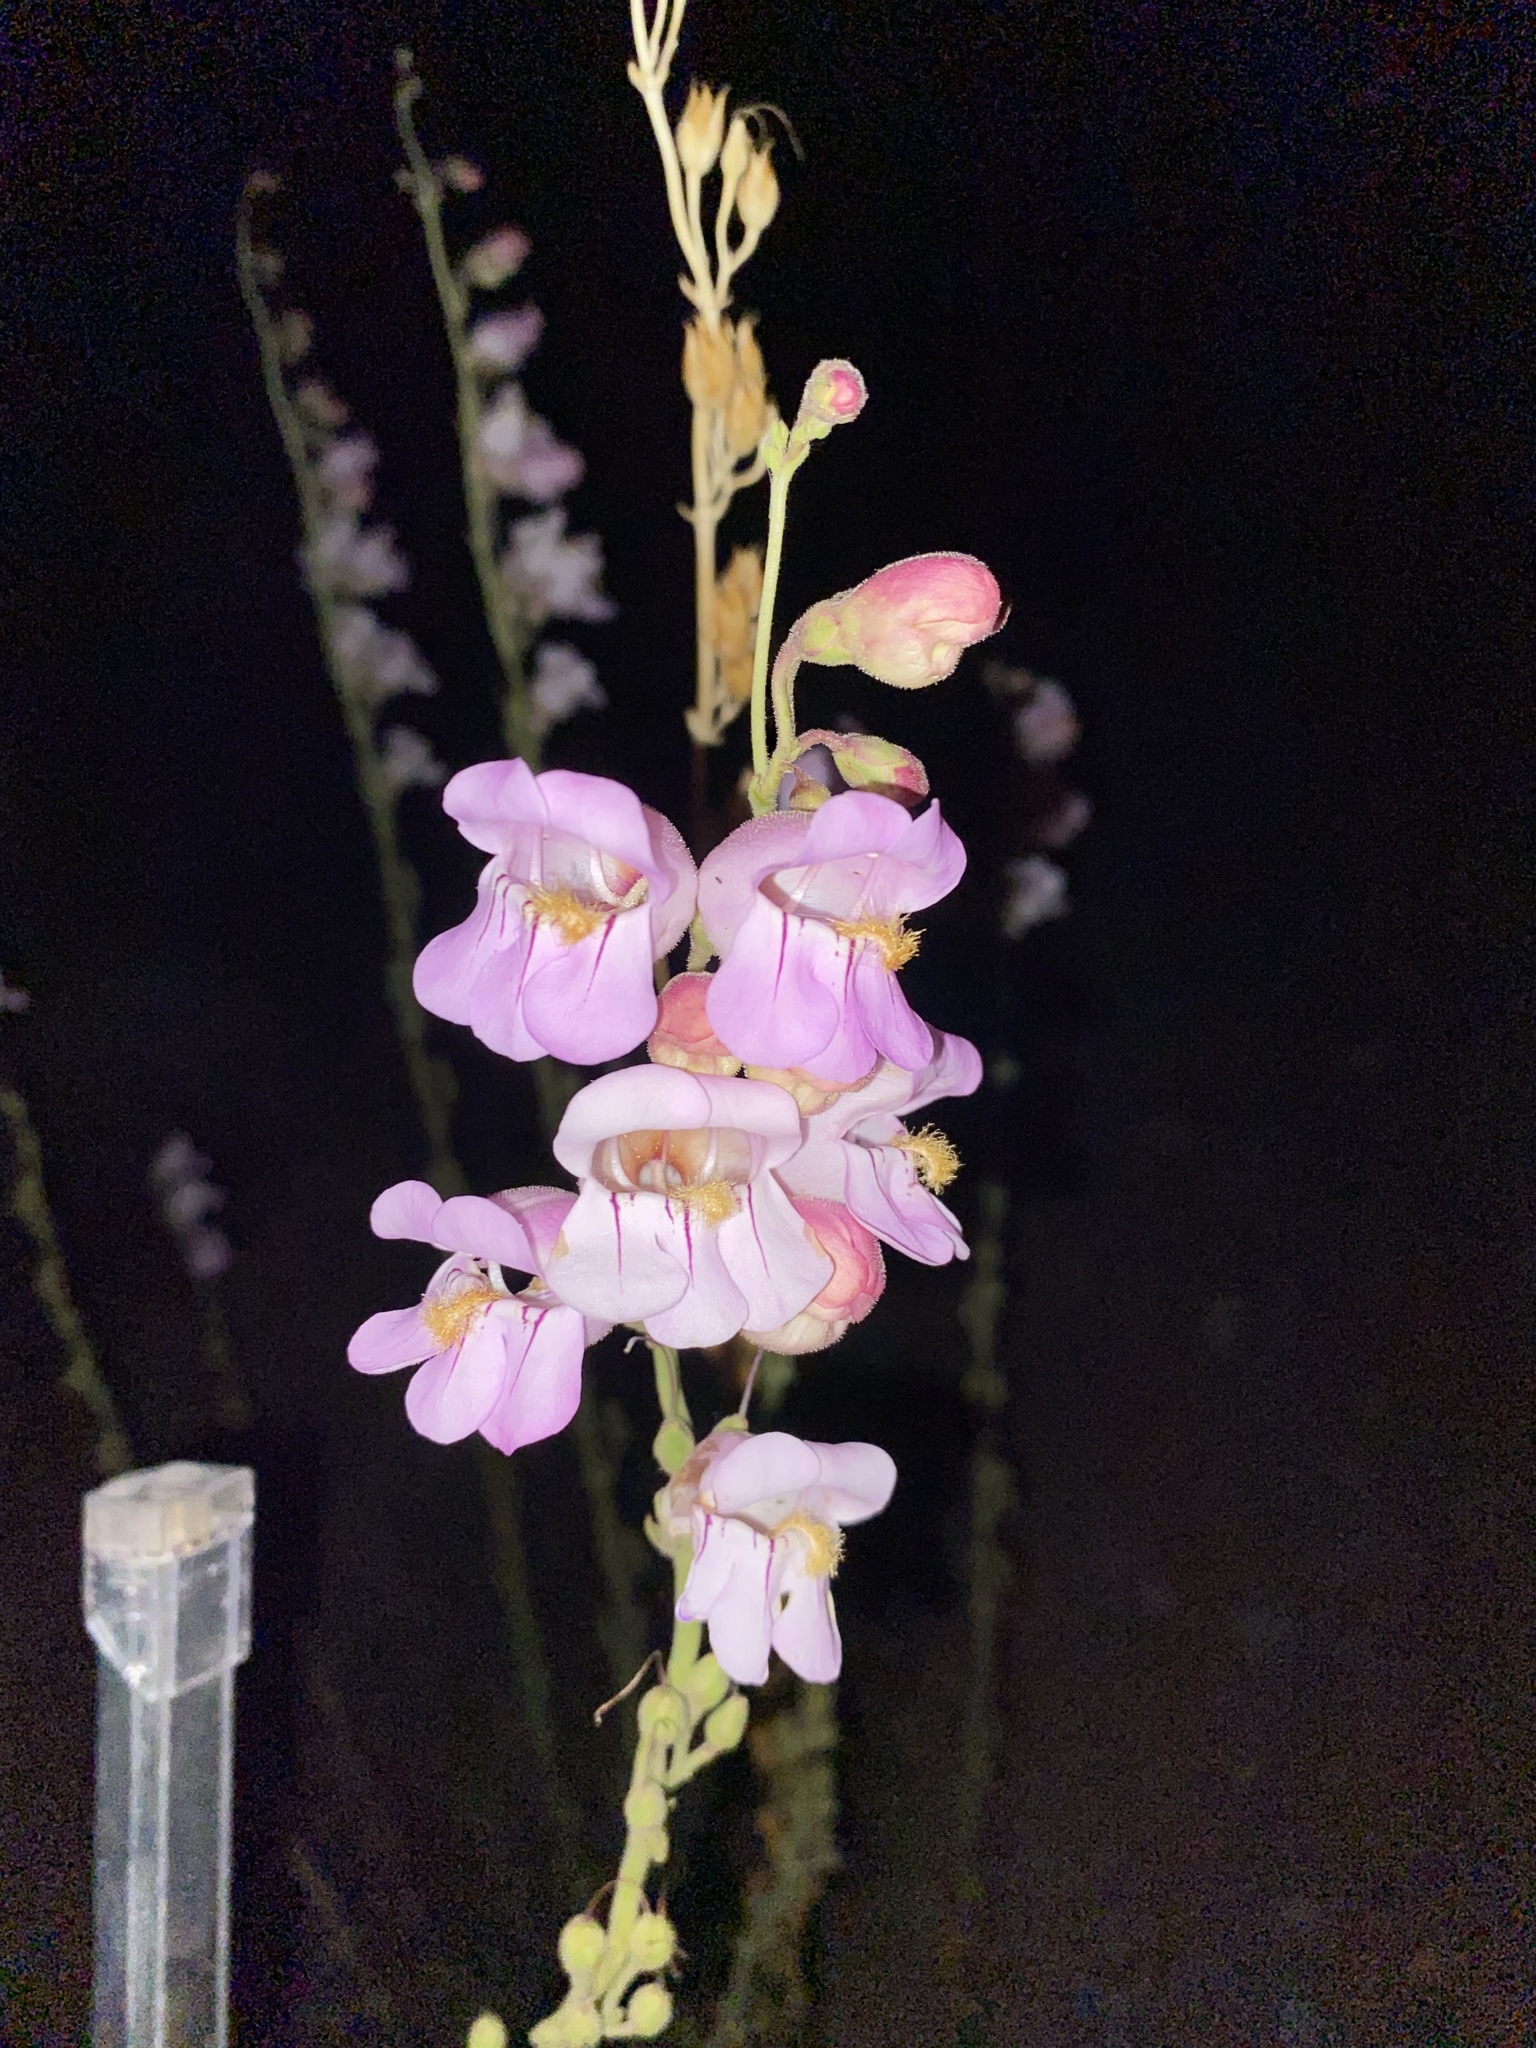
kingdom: Plantae
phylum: Tracheophyta
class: Magnoliopsida
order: Lamiales
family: Plantaginaceae
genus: Penstemon
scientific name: Penstemon palmeri
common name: Palmer penstemon
